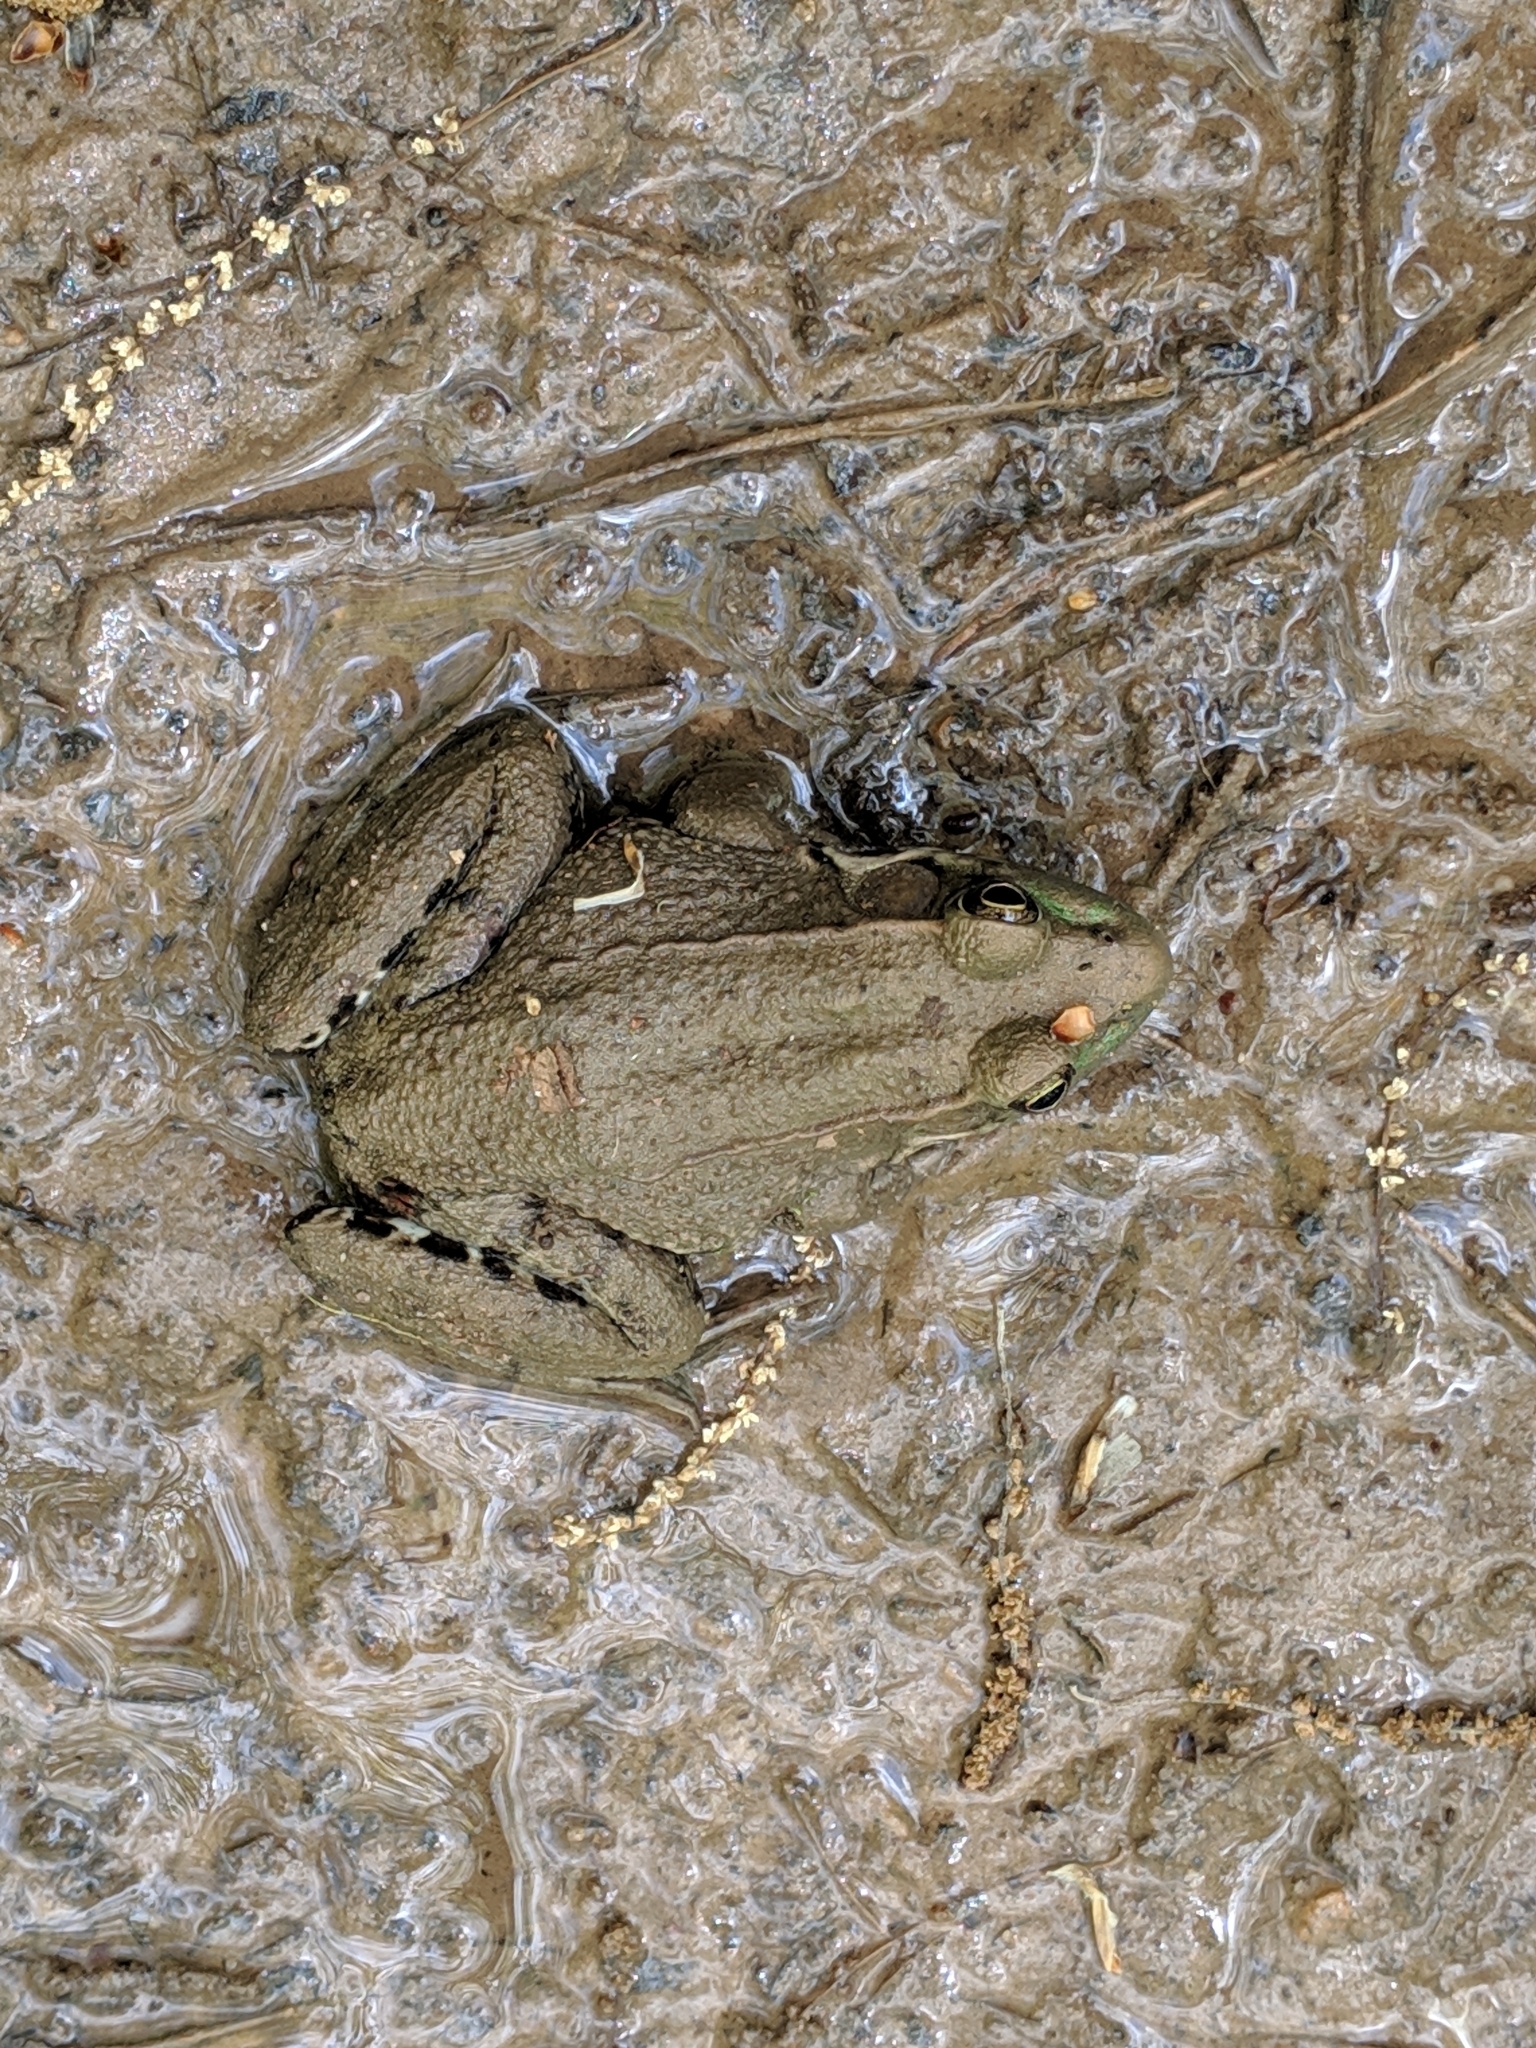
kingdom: Animalia
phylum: Chordata
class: Amphibia
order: Anura
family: Ranidae
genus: Lithobates
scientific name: Lithobates clamitans
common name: Green frog
